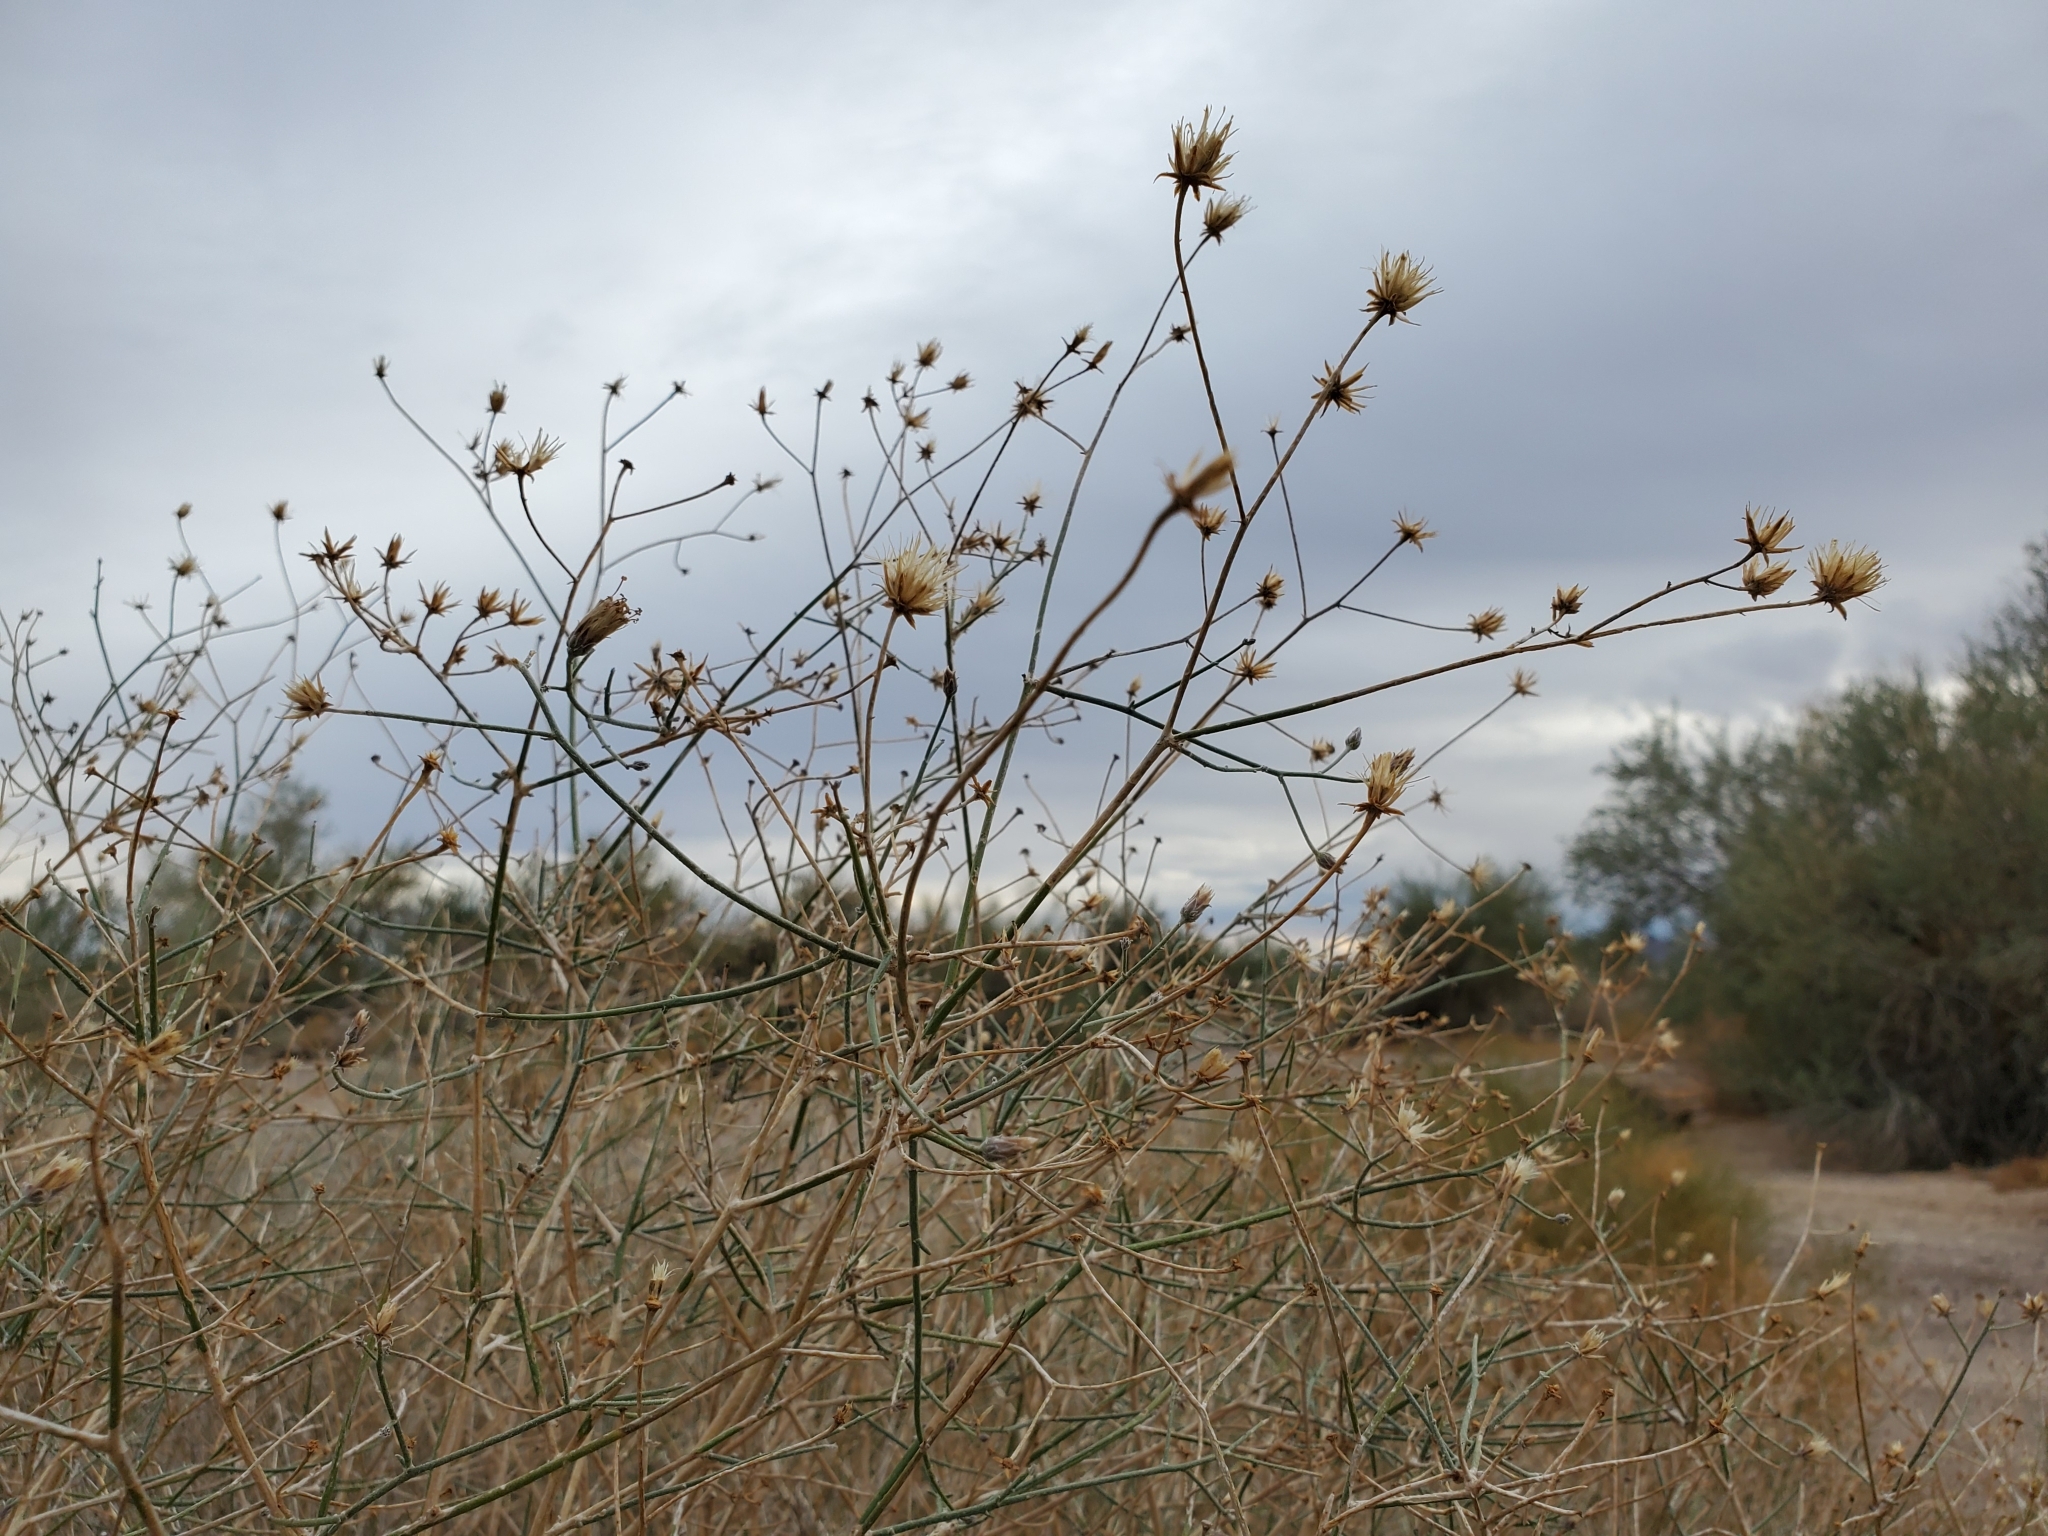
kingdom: Plantae
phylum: Tracheophyta
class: Magnoliopsida
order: Asterales
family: Asteraceae
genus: Bebbia
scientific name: Bebbia juncea
